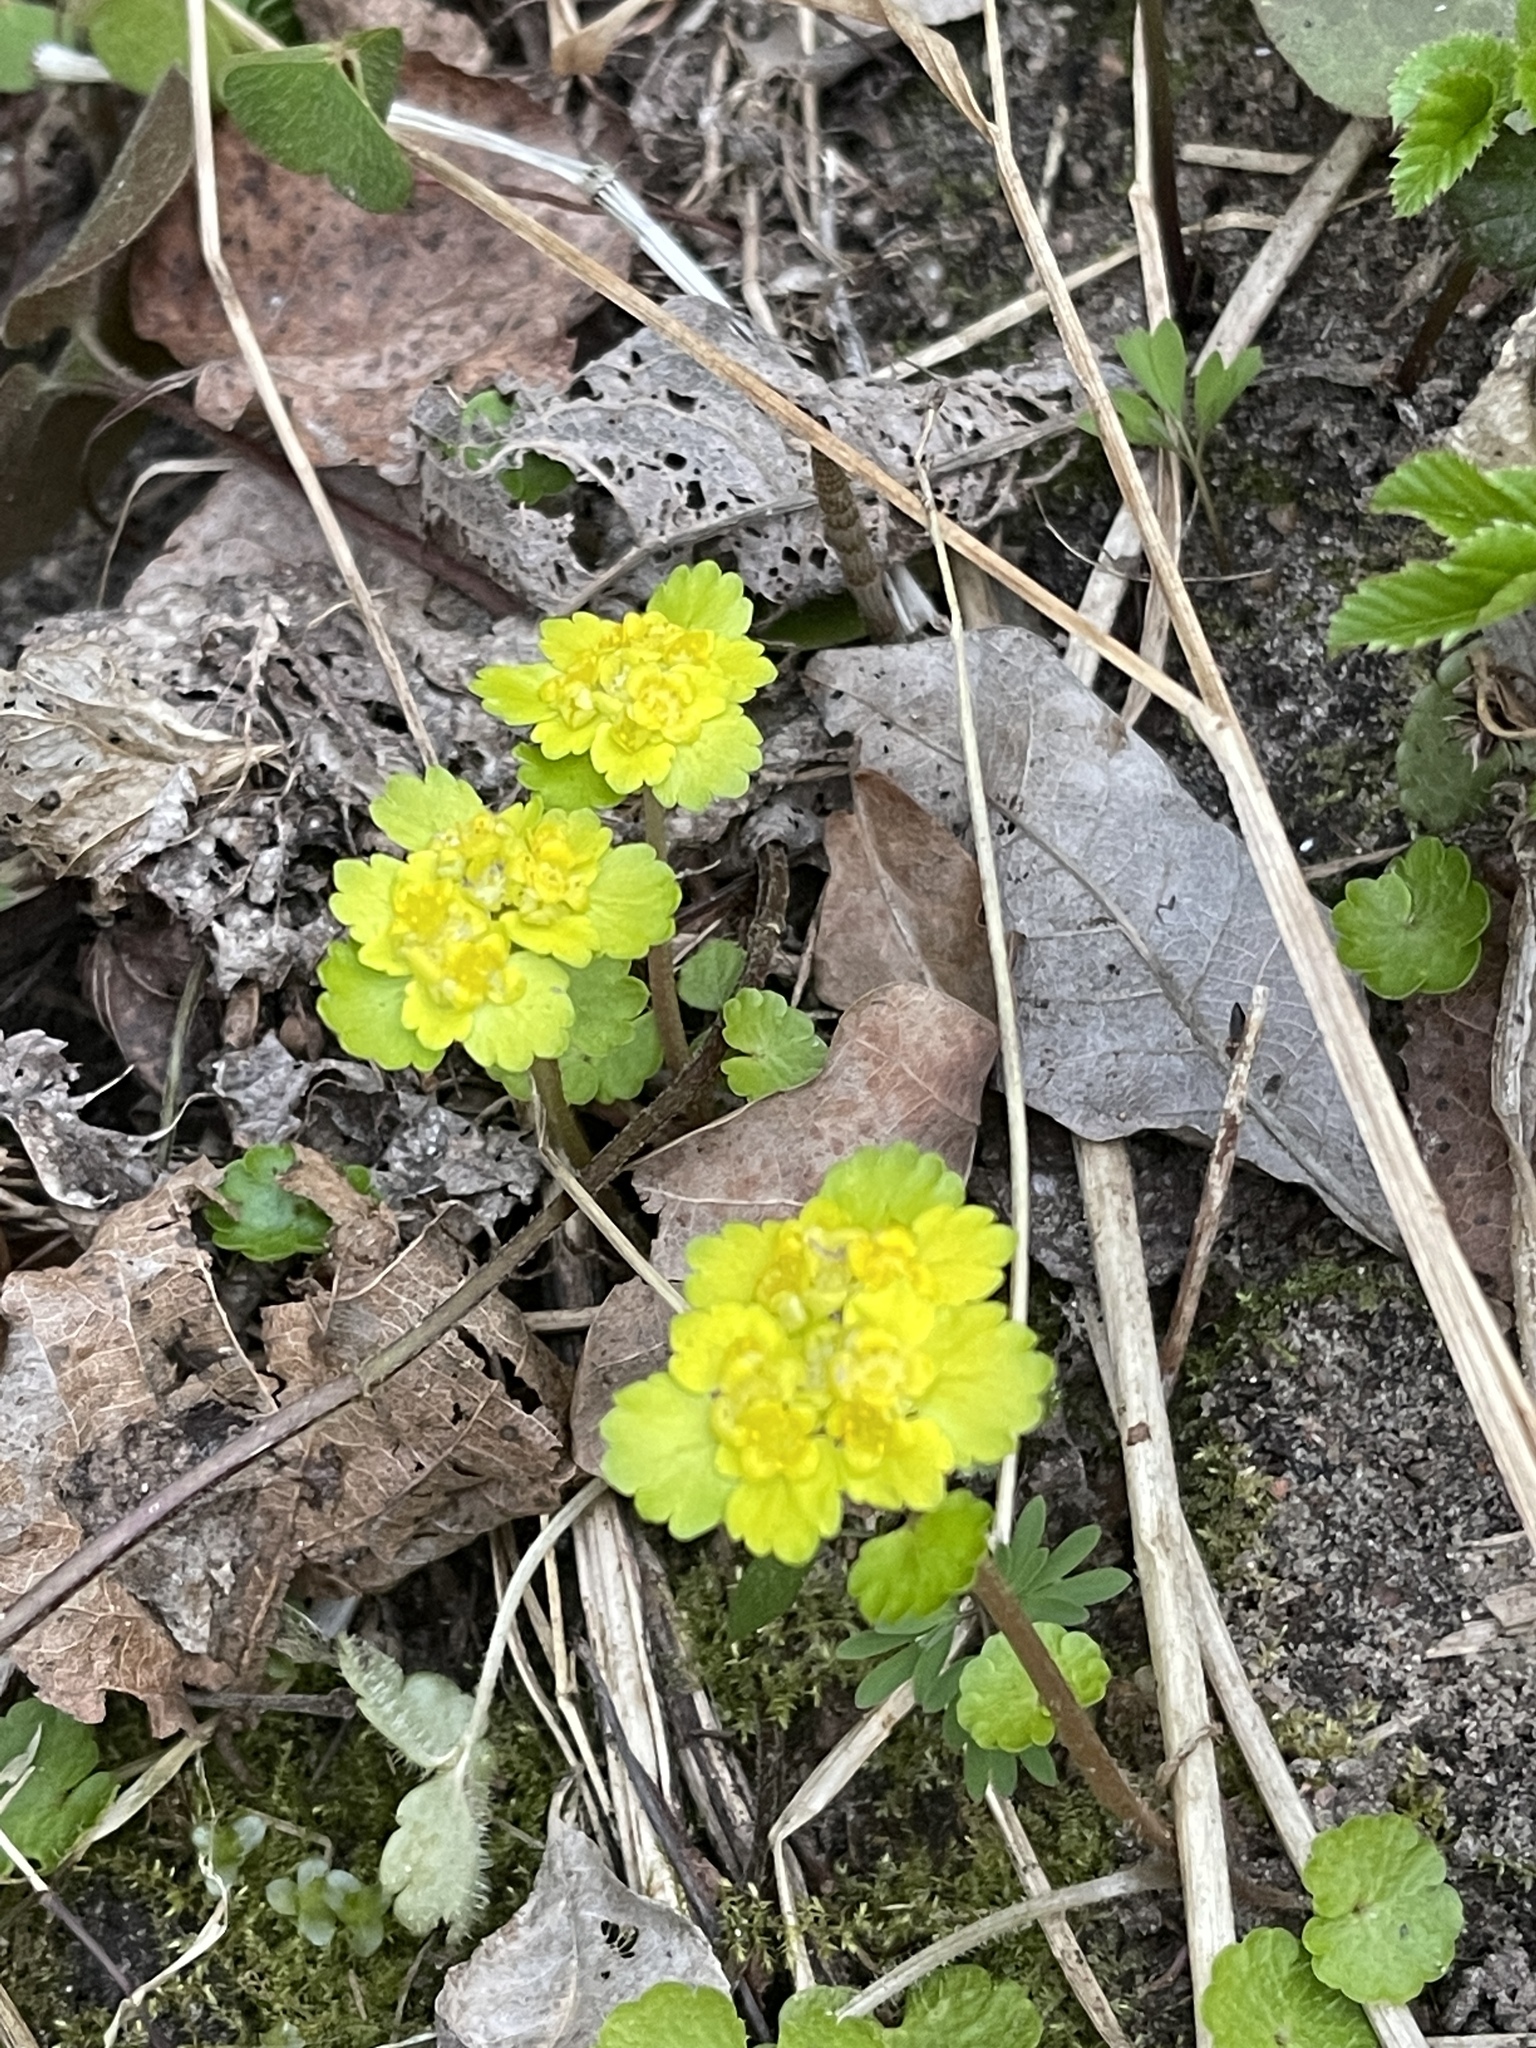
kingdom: Plantae
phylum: Tracheophyta
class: Magnoliopsida
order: Saxifragales
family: Saxifragaceae
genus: Chrysosplenium
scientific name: Chrysosplenium alternifolium
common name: Alternate-leaved golden-saxifrage
